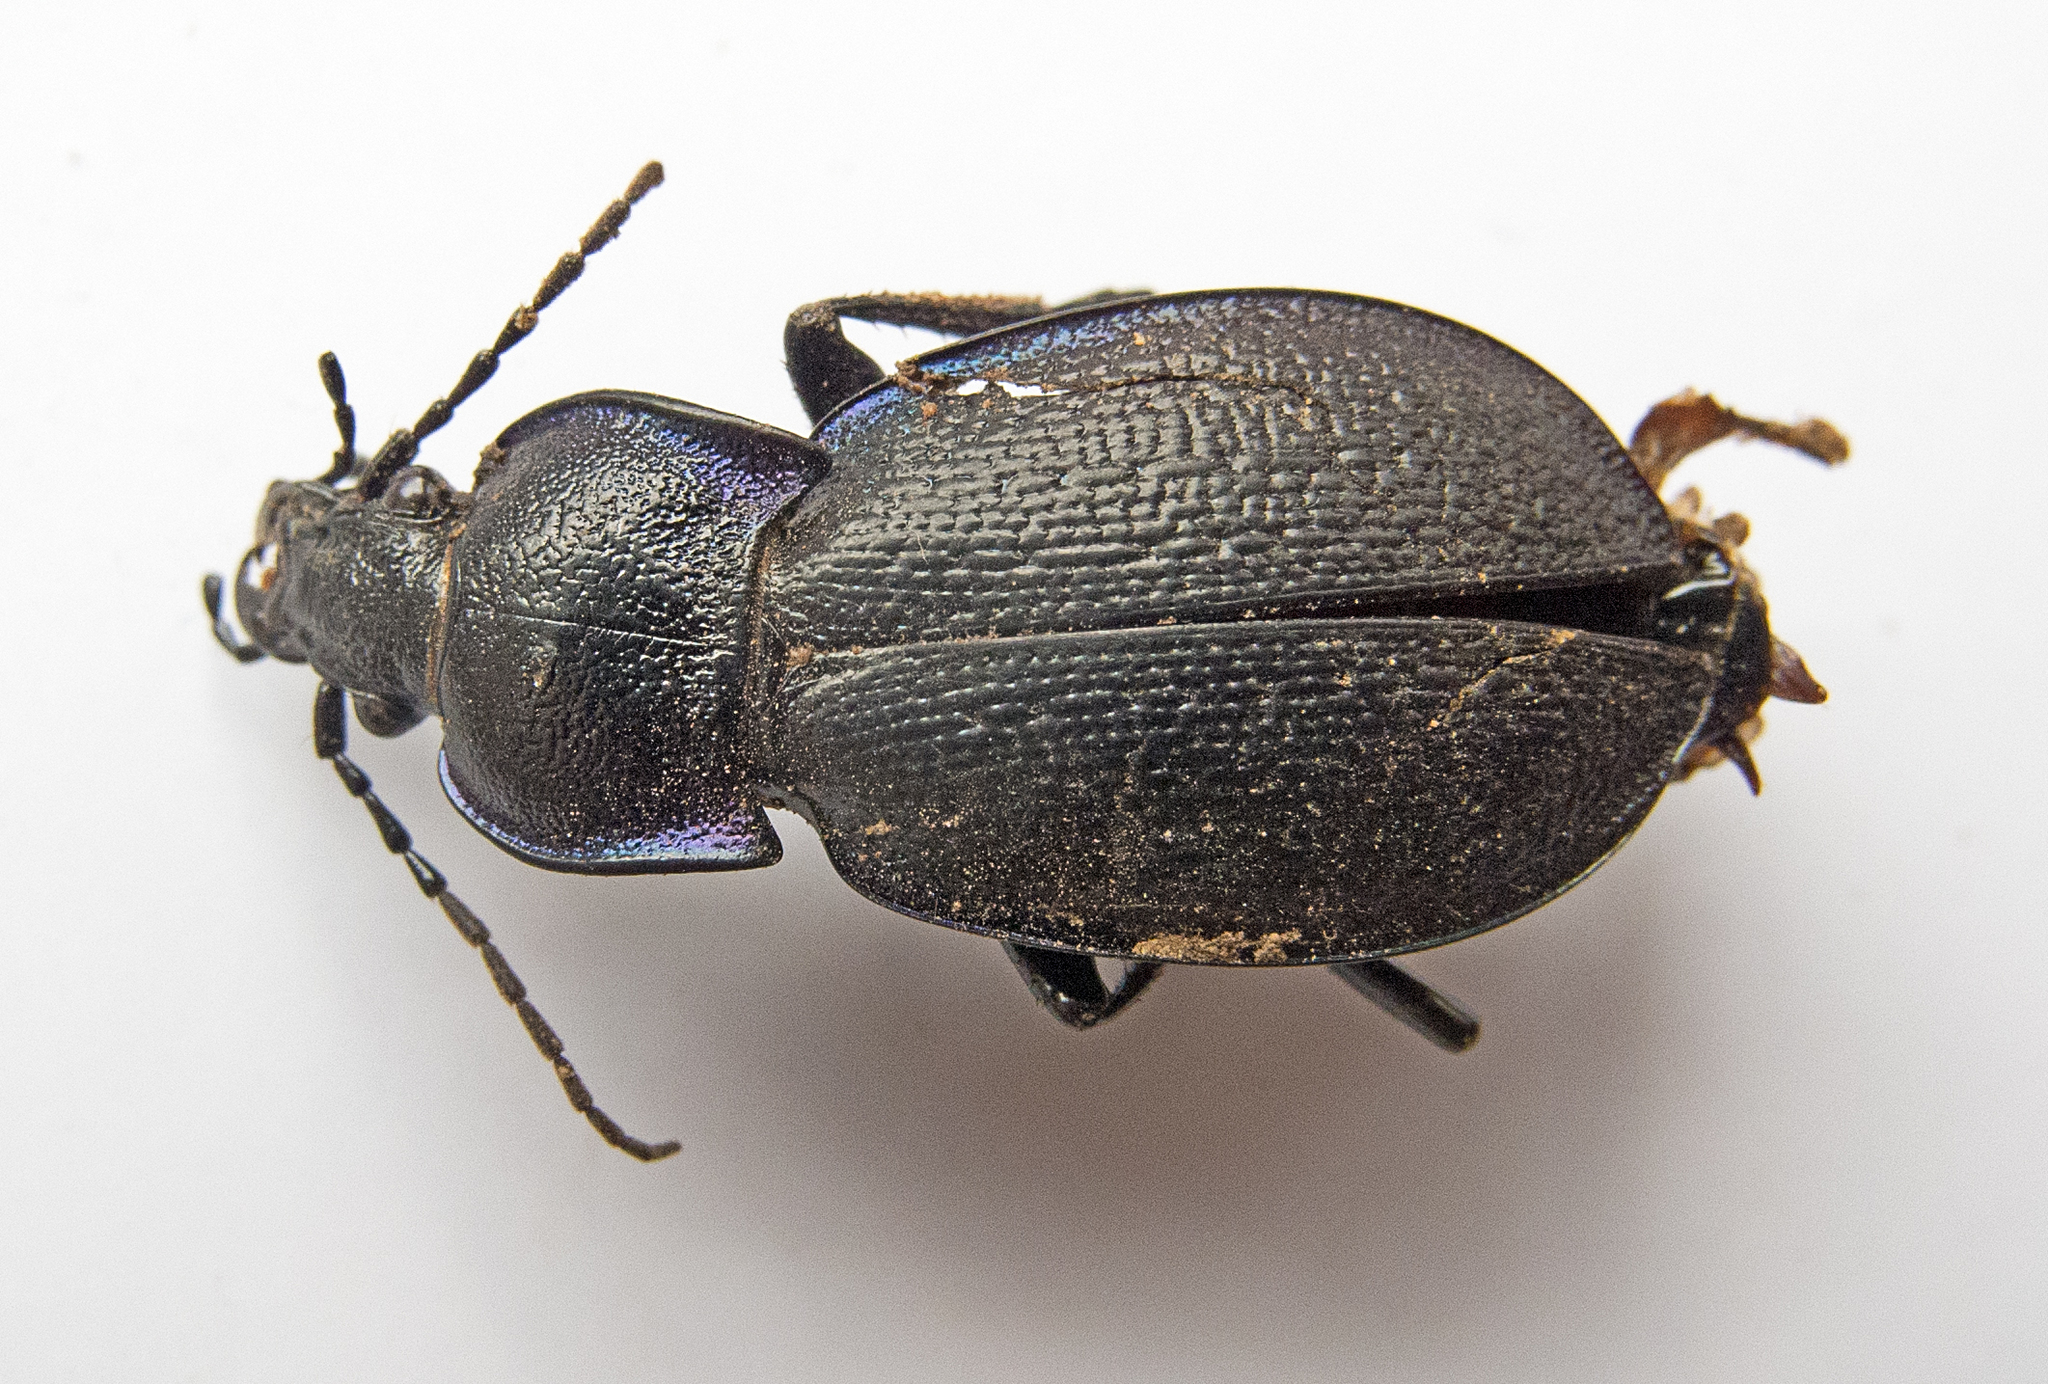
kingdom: Animalia
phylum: Arthropoda
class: Insecta
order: Coleoptera
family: Carabidae
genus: Carabus
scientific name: Carabus wiedemanni
